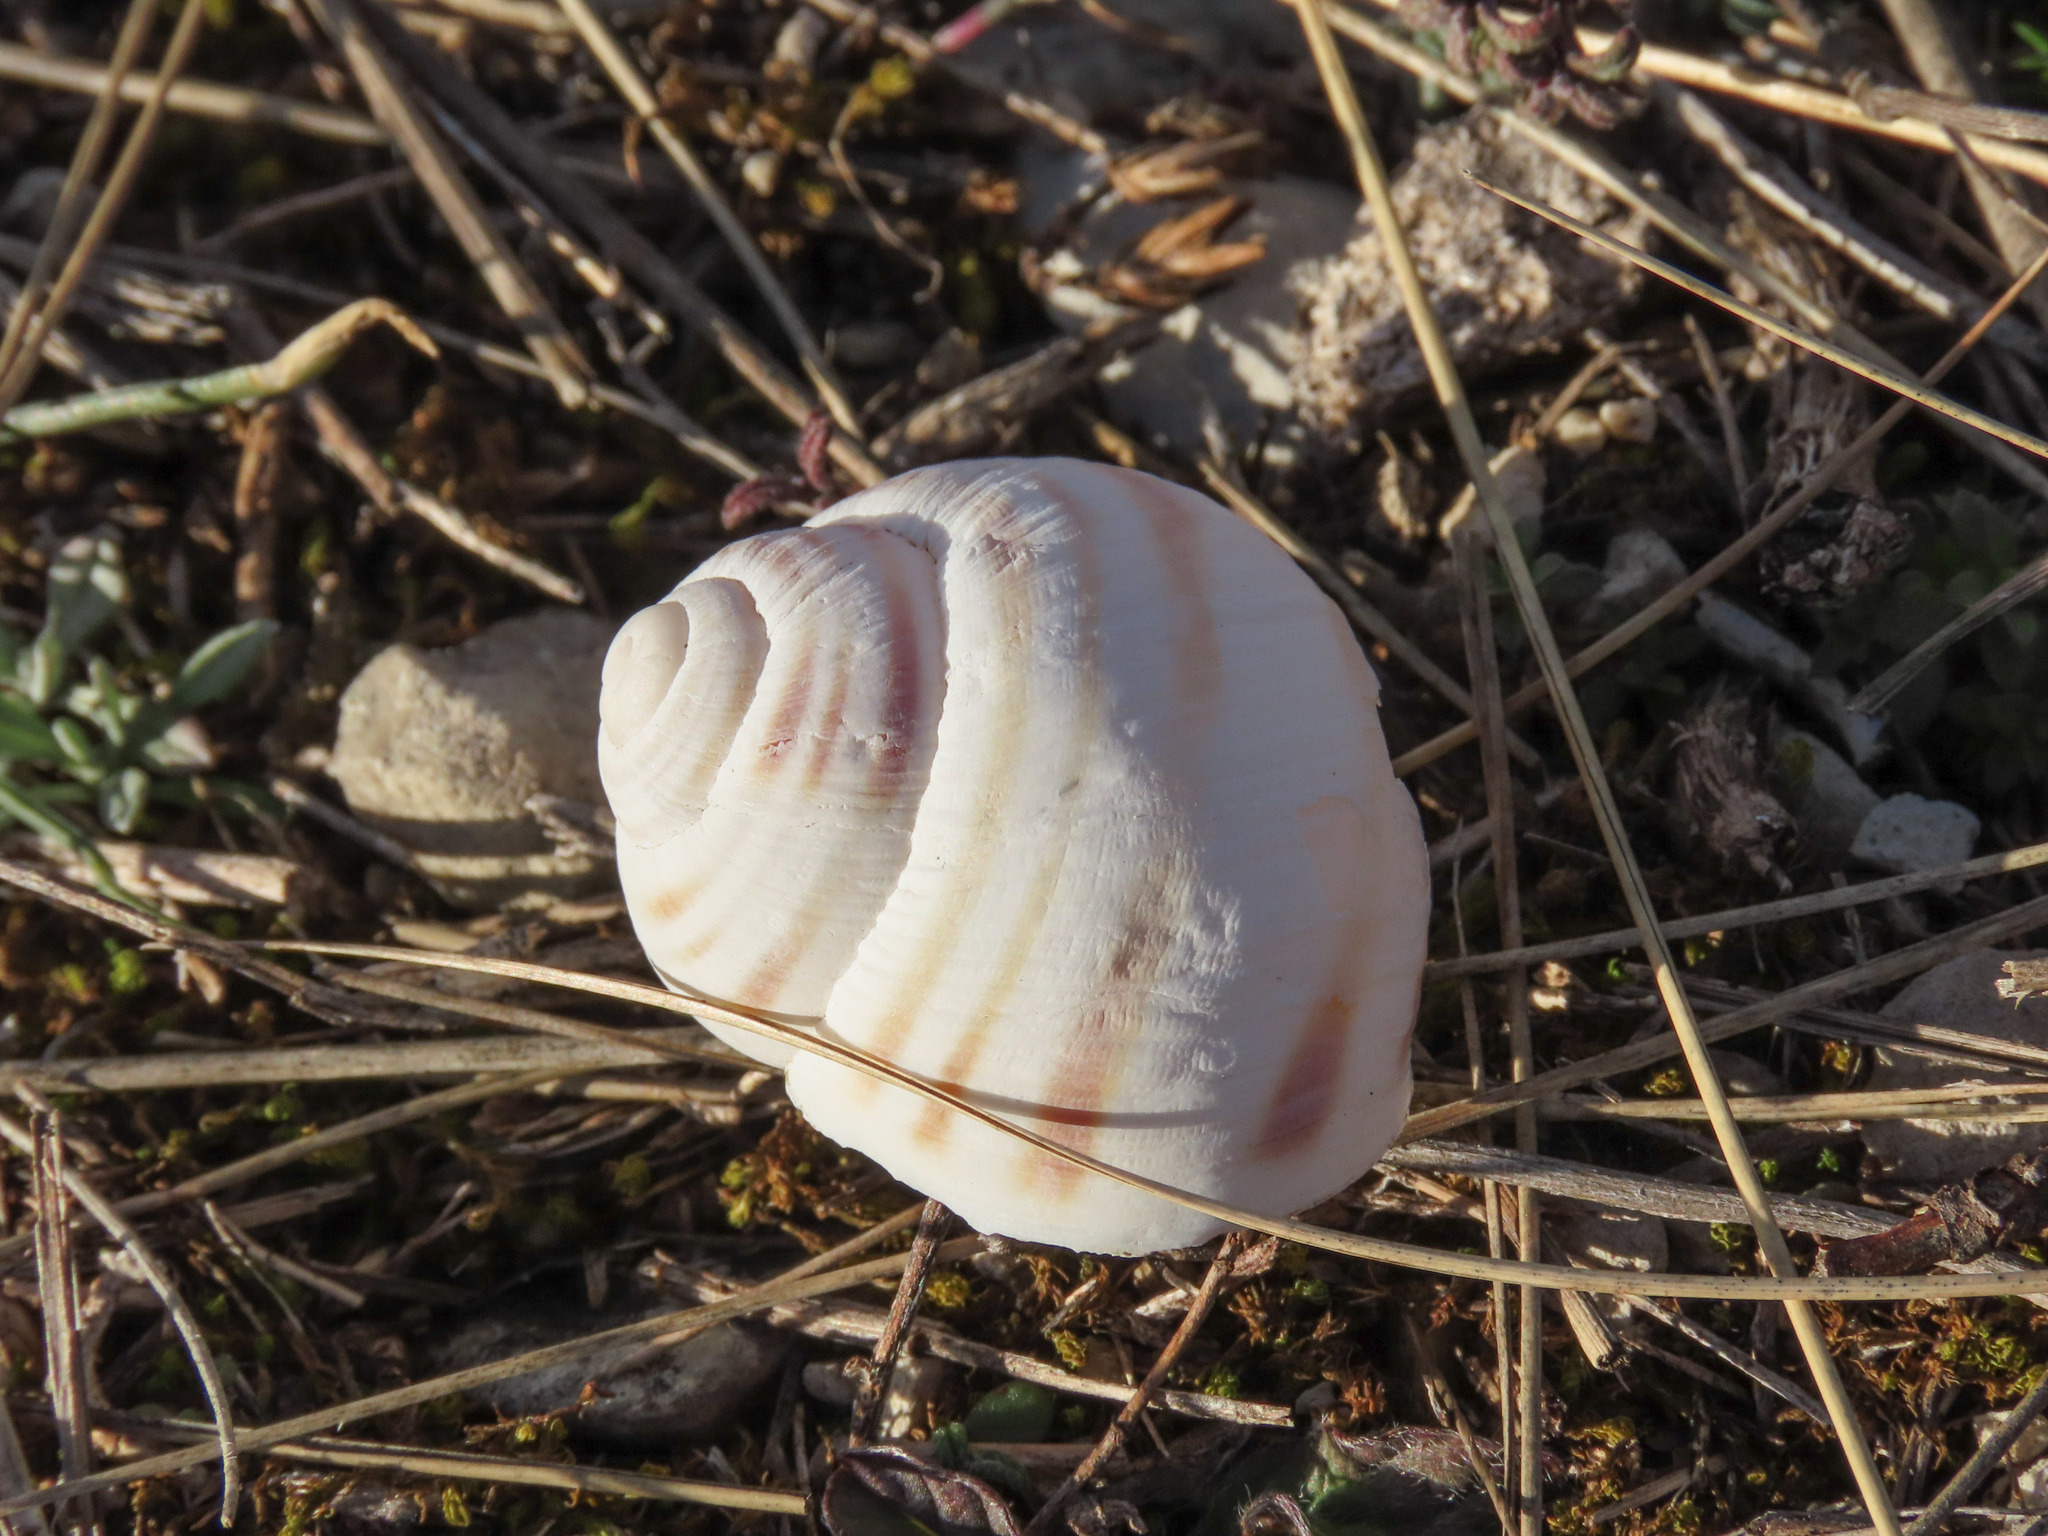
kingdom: Animalia
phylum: Mollusca
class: Gastropoda
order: Stylommatophora
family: Helicidae
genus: Helix
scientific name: Helix ligata
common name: Ligate snail
